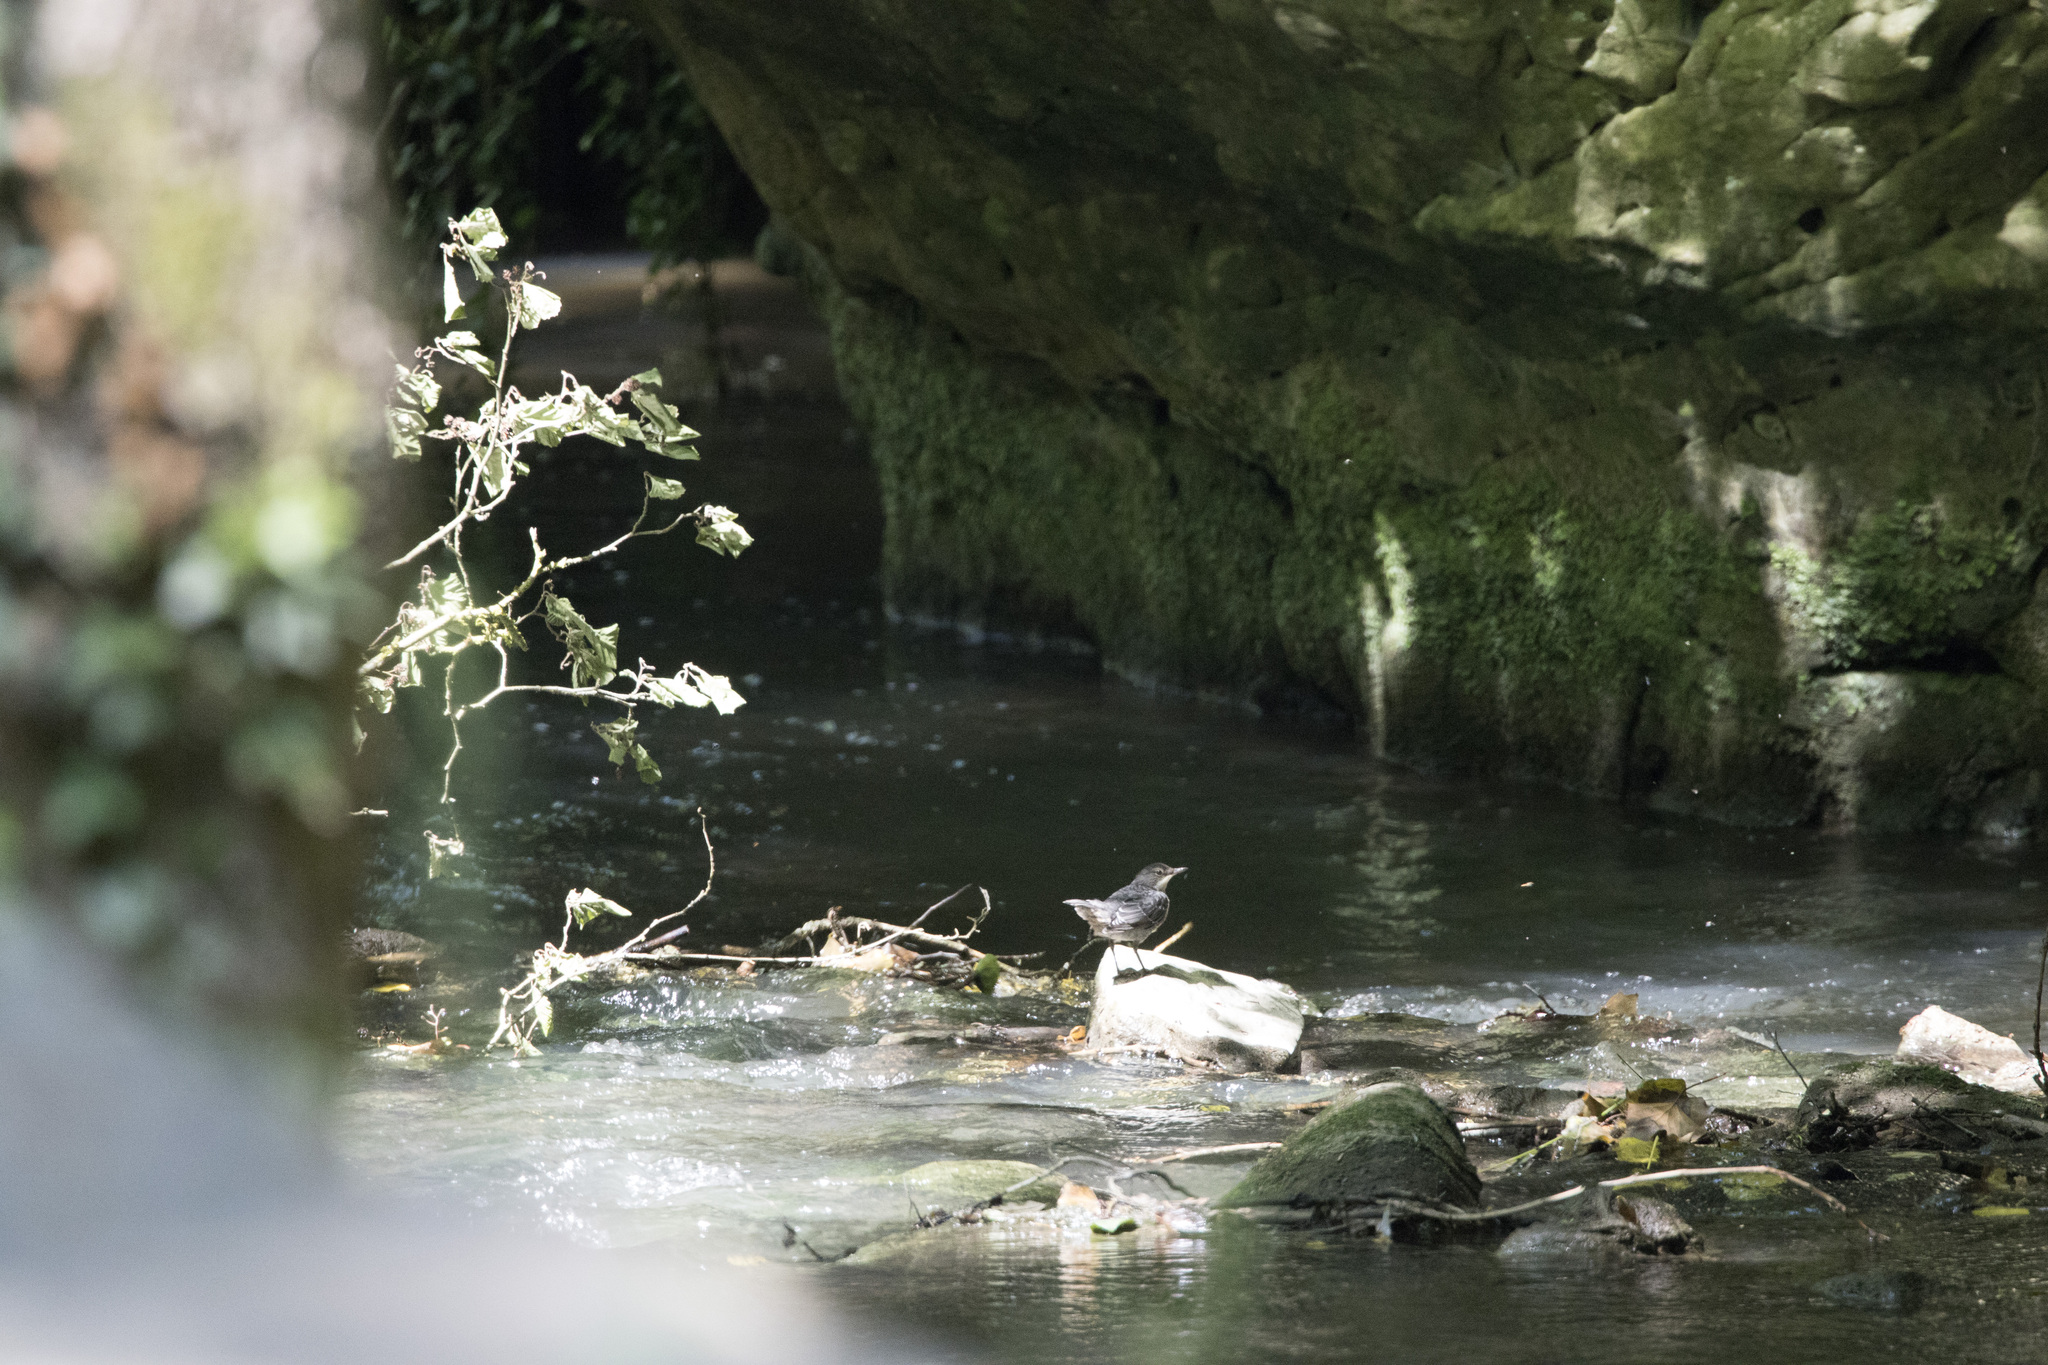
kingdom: Animalia
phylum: Chordata
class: Aves
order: Passeriformes
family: Cinclidae
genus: Cinclus
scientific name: Cinclus cinclus
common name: White-throated dipper
